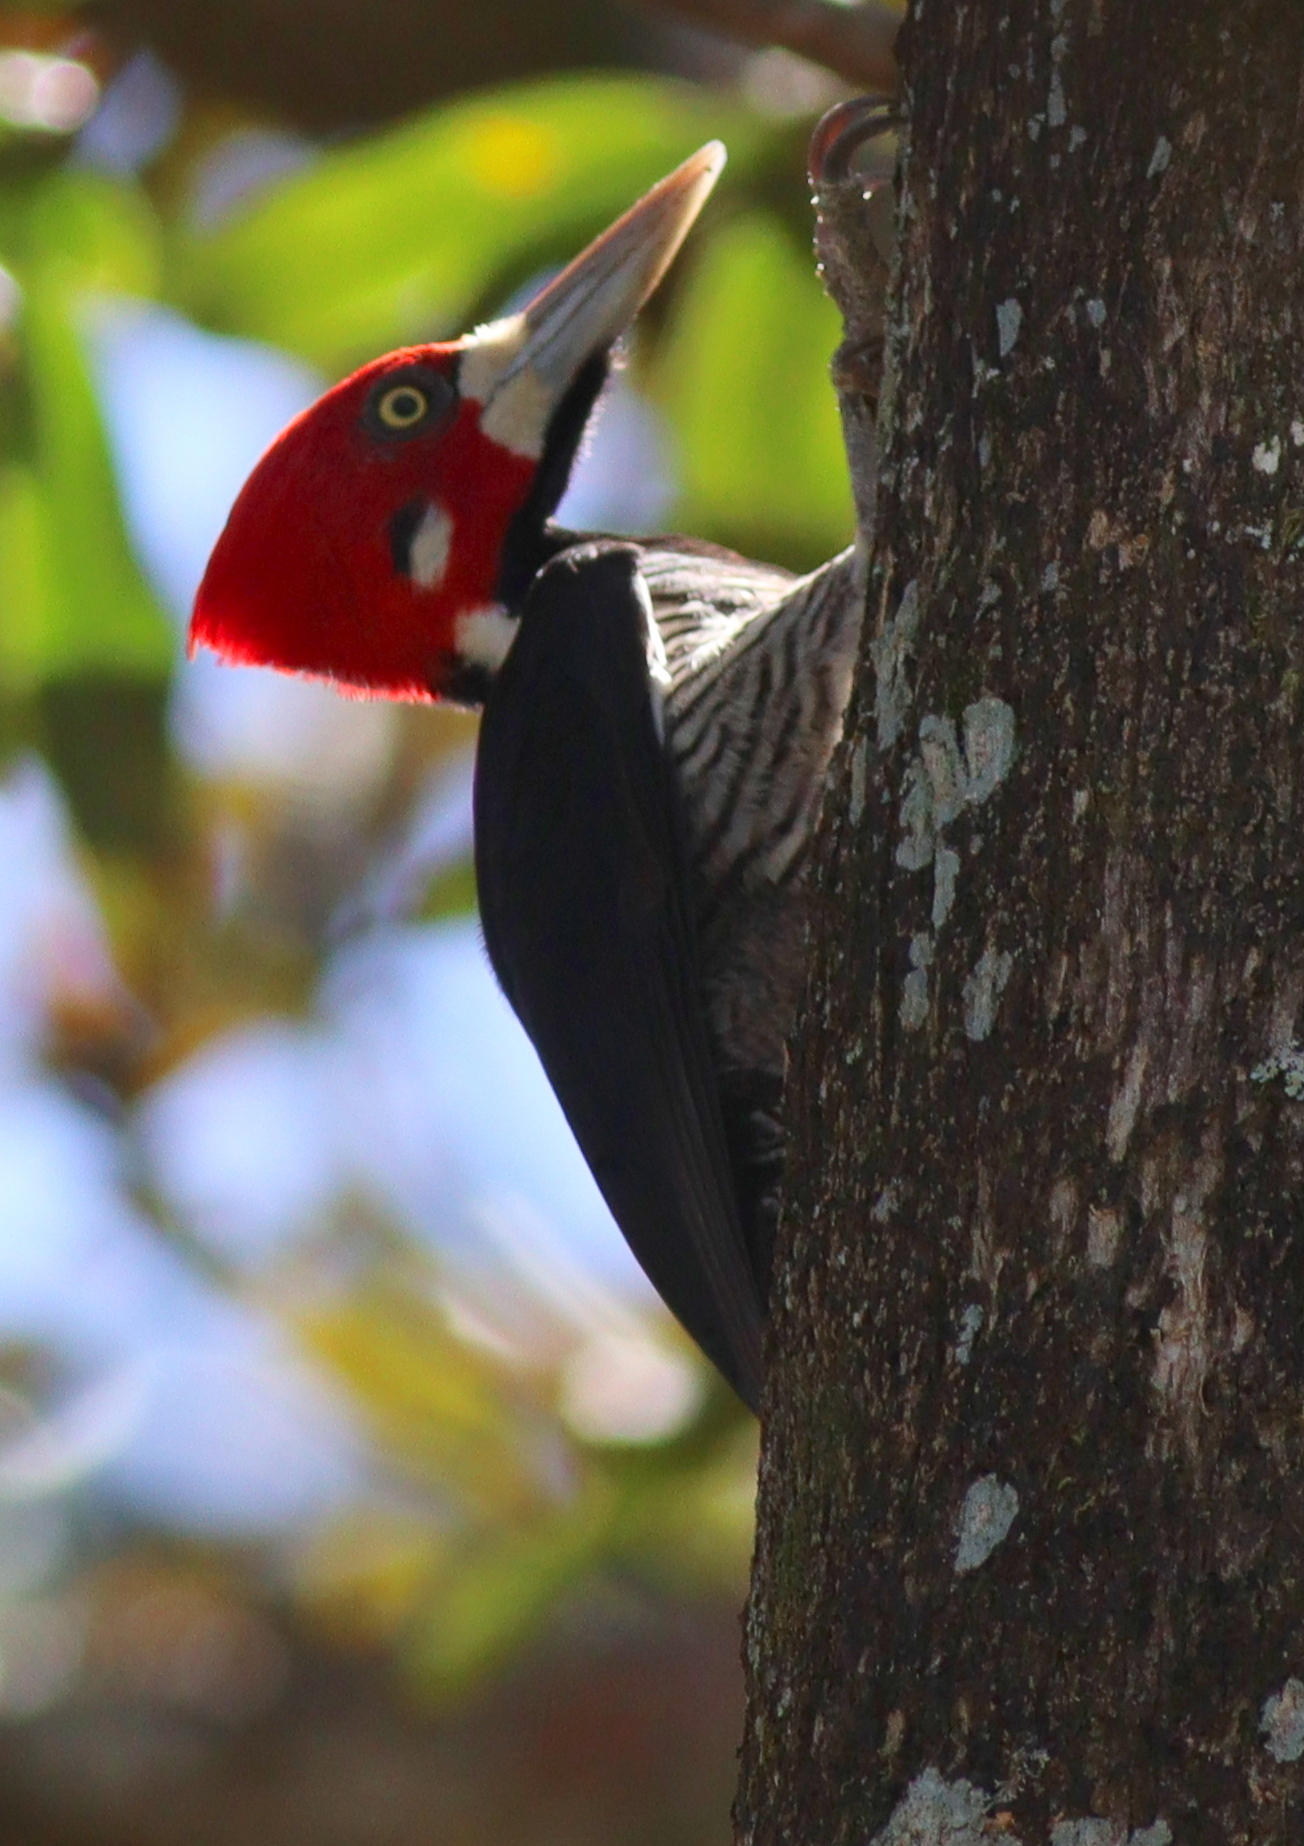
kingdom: Animalia
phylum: Chordata
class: Aves
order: Piciformes
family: Picidae
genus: Campephilus
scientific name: Campephilus melanoleucos
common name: Crimson-crested woodpecker
